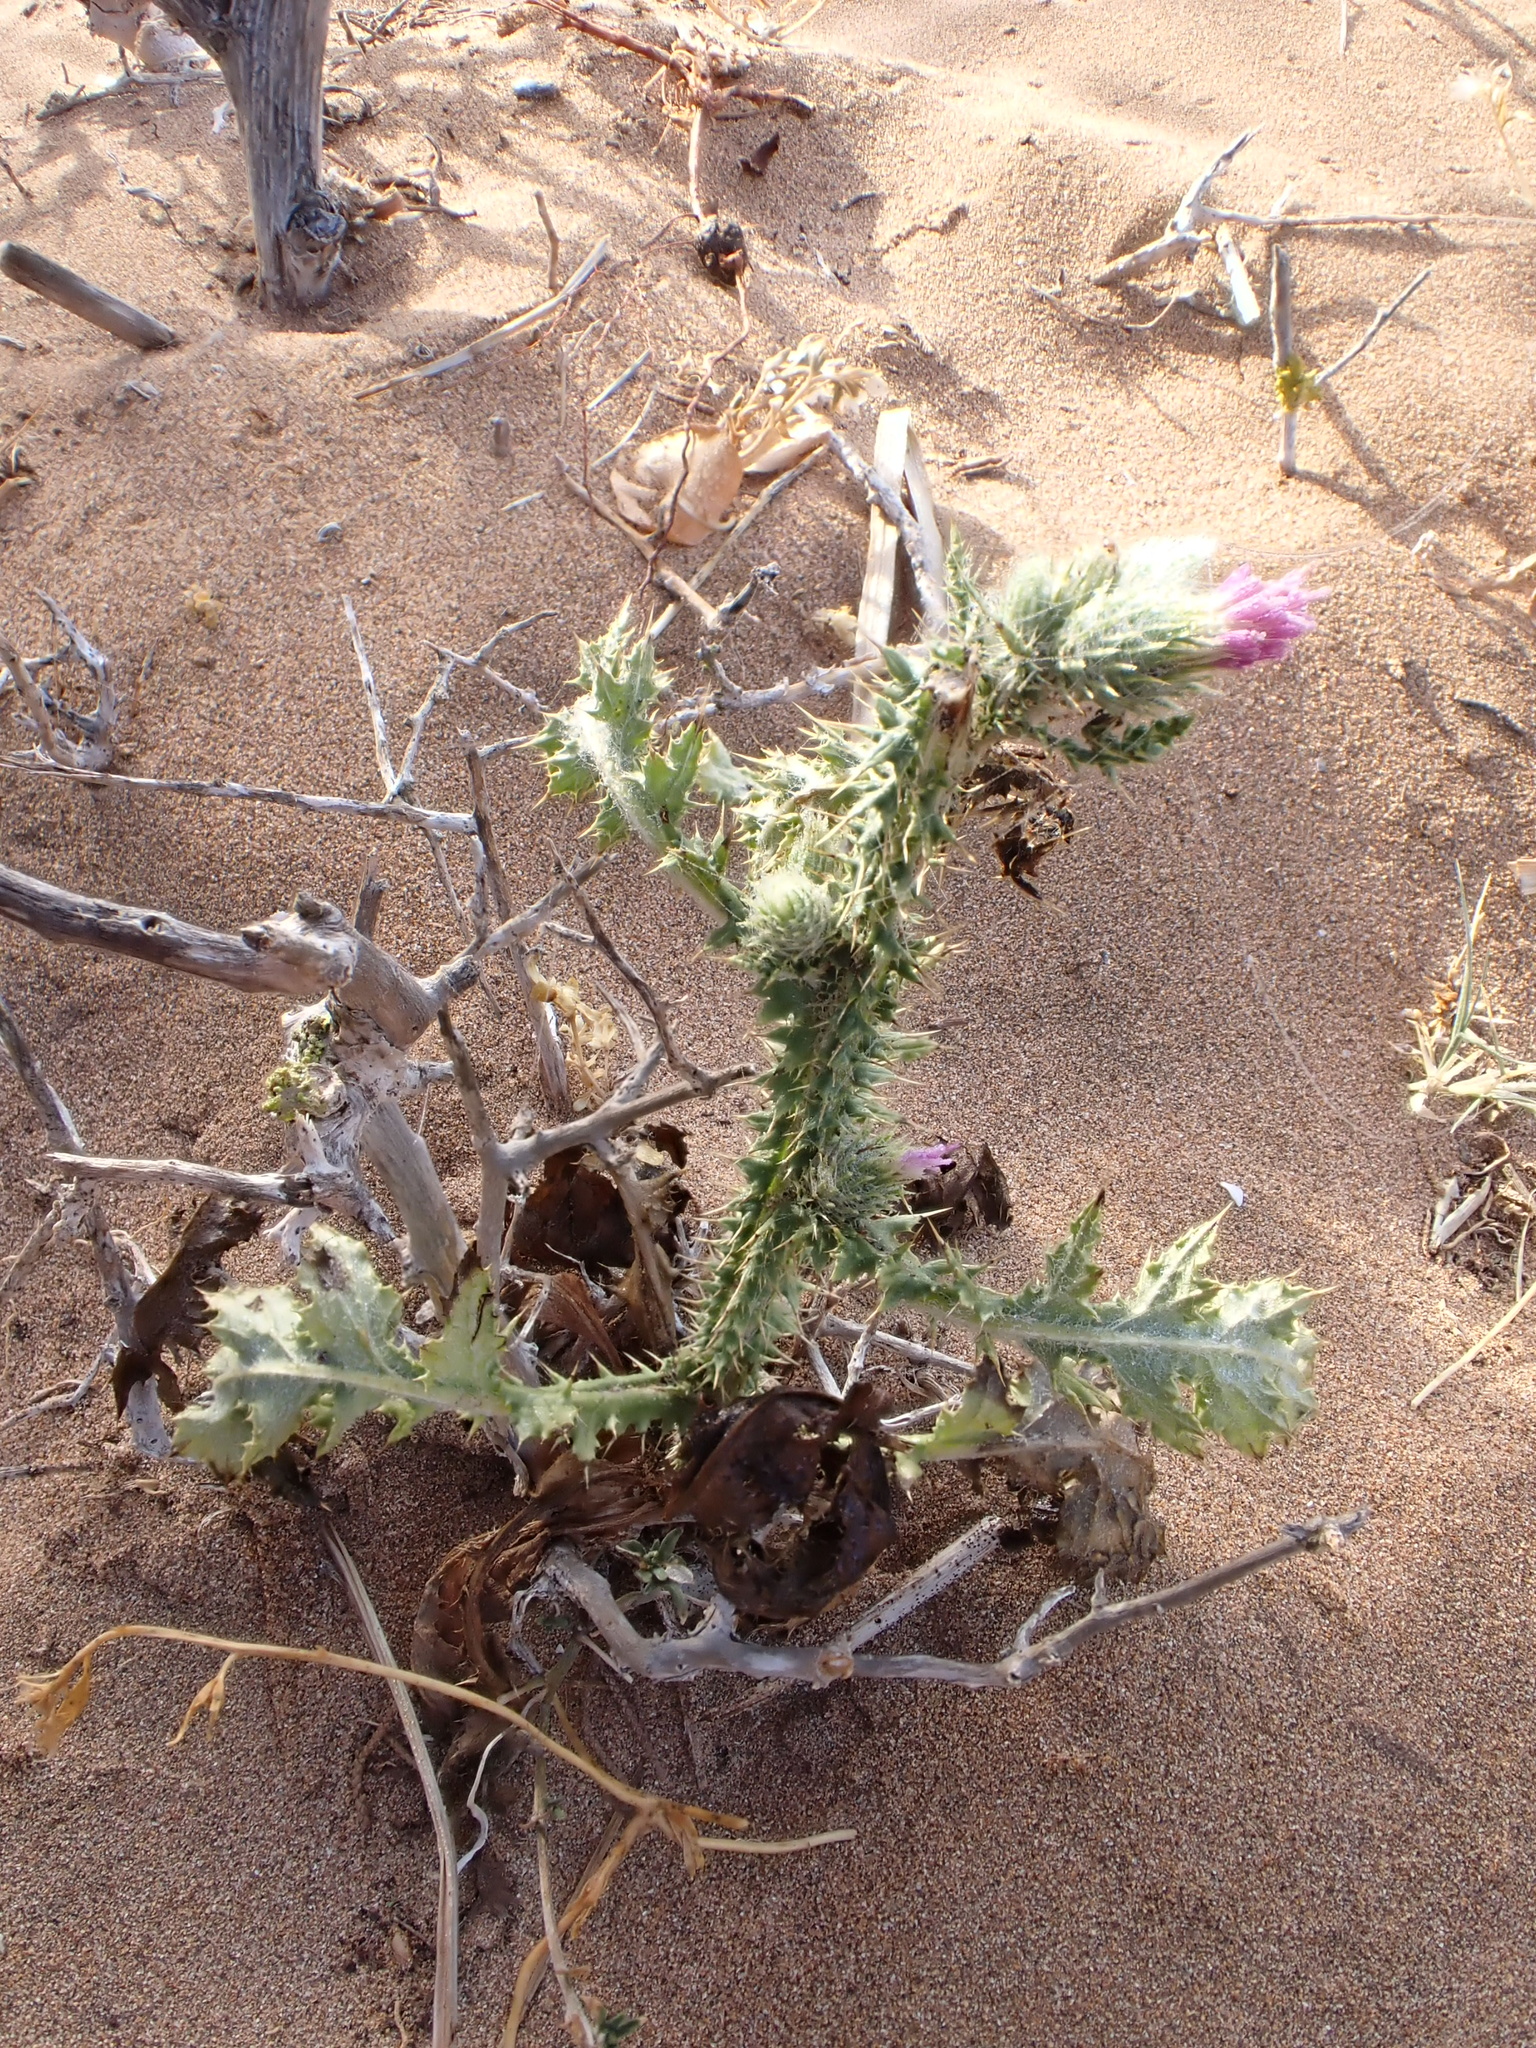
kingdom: Plantae
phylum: Tracheophyta
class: Magnoliopsida
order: Asterales
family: Asteraceae
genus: Carduus
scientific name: Carduus tenuiflorus
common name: Slender thistle
